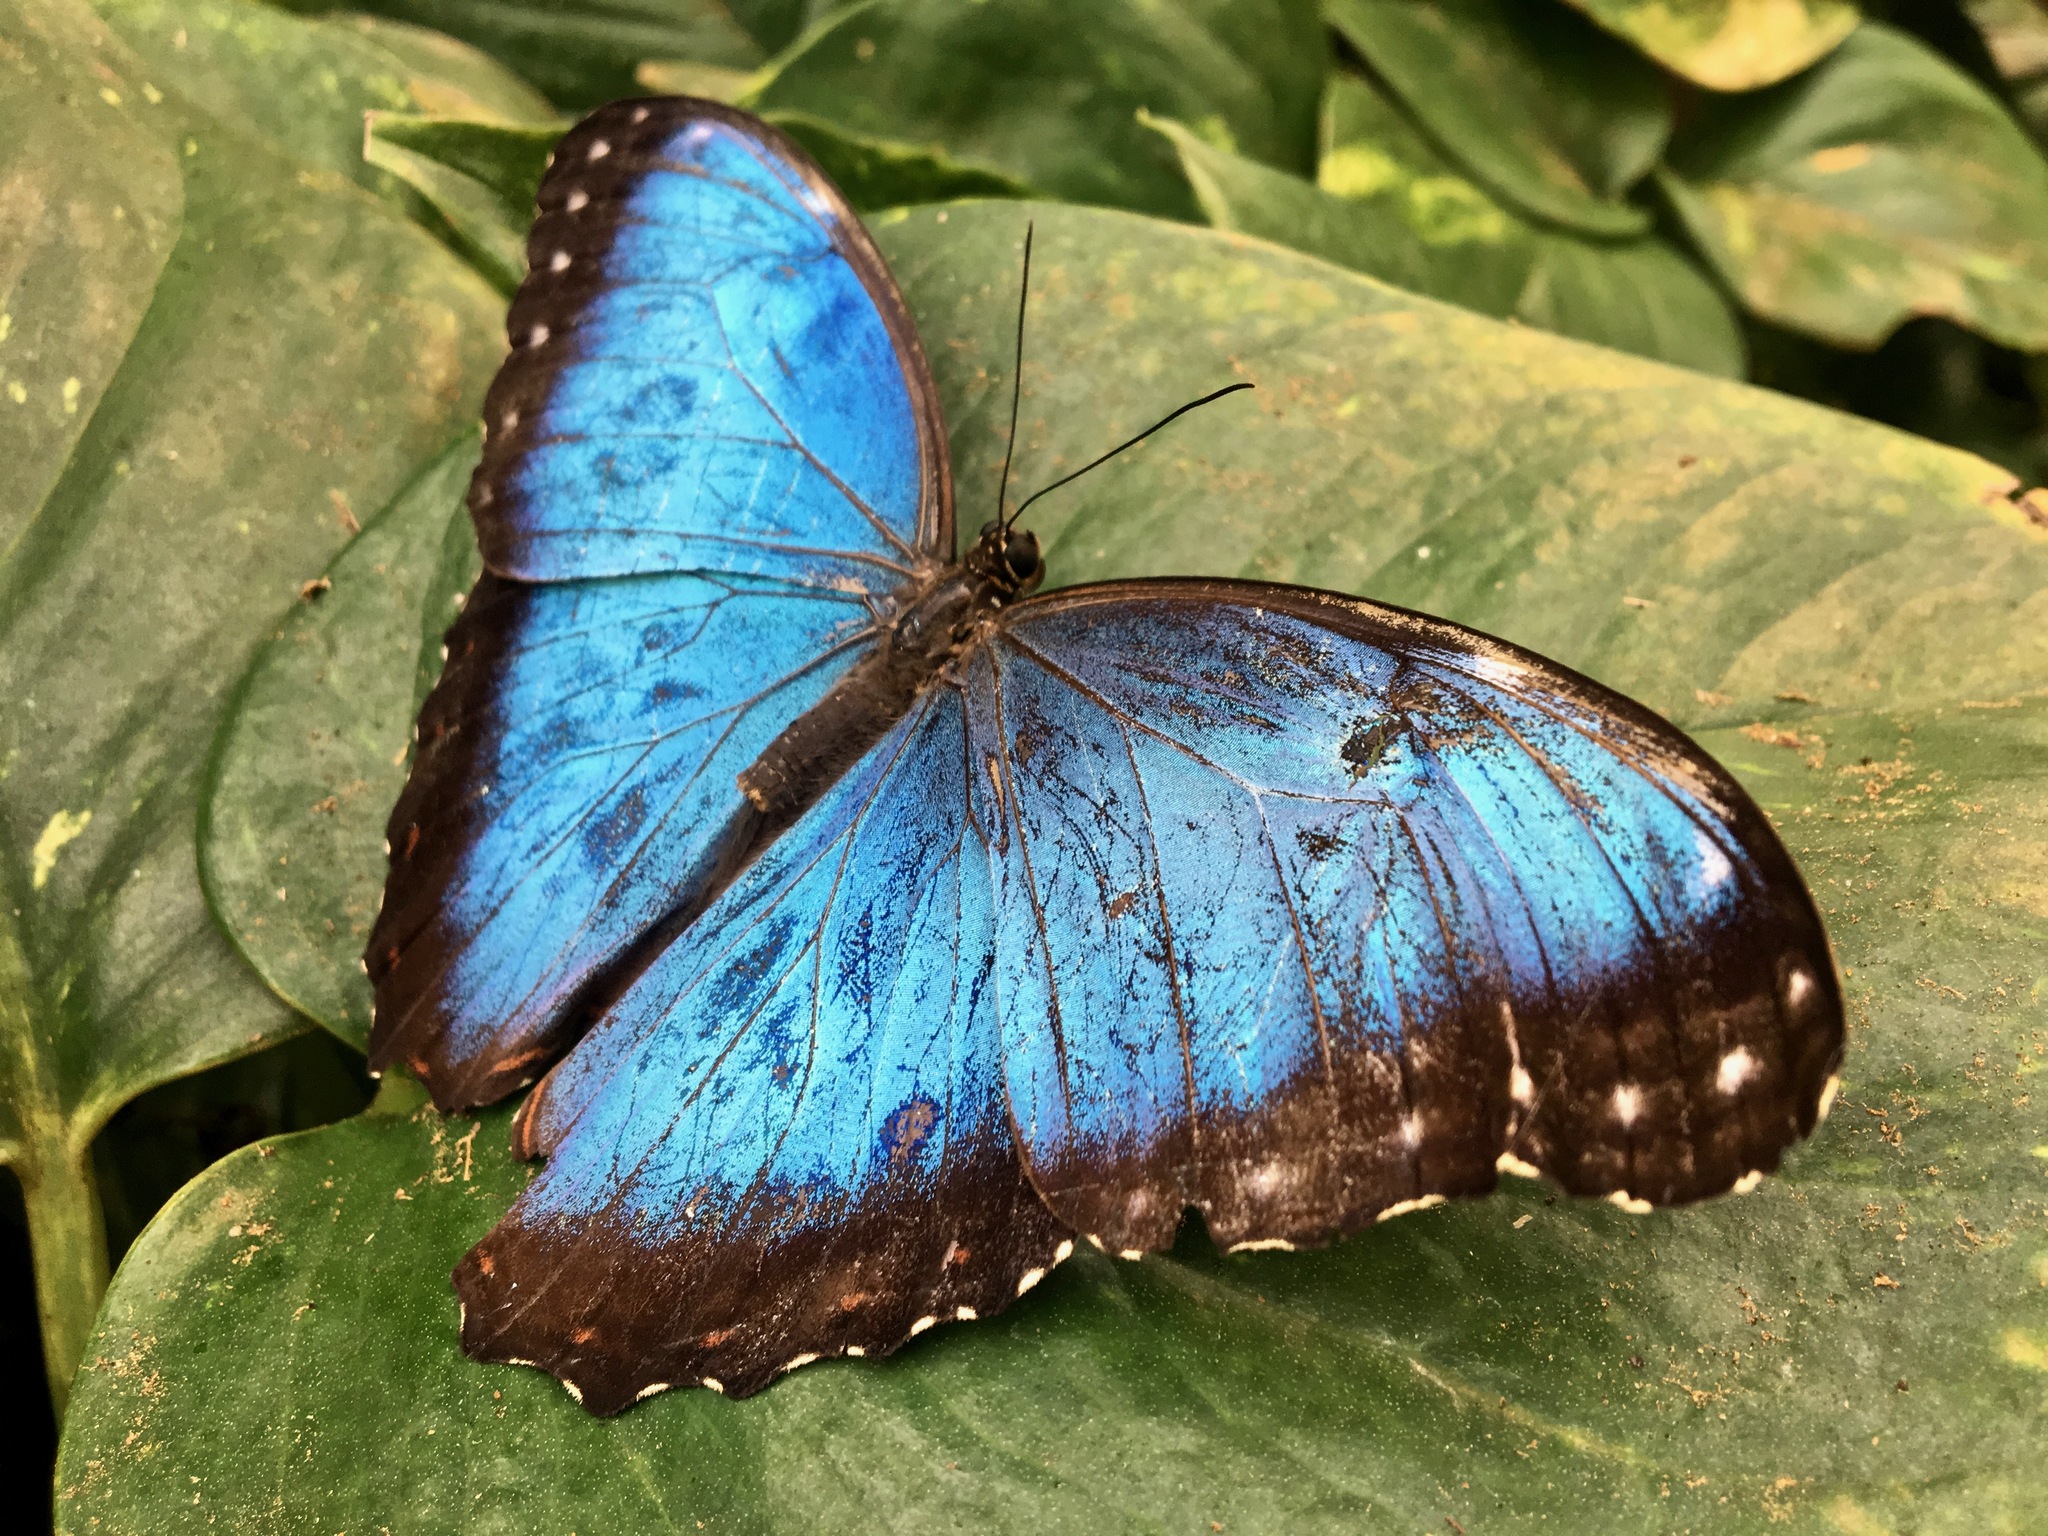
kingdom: Animalia
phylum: Arthropoda
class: Insecta
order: Lepidoptera
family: Nymphalidae
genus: Morpho
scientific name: Morpho helenor
